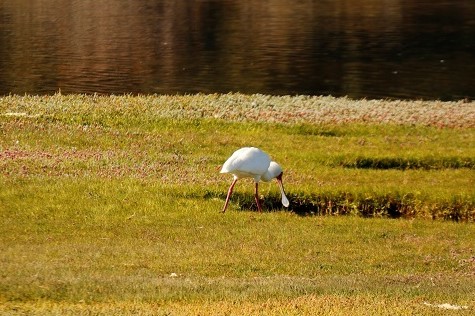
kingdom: Animalia
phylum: Chordata
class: Aves
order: Pelecaniformes
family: Threskiornithidae
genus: Platalea
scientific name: Platalea alba
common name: African spoonbill
